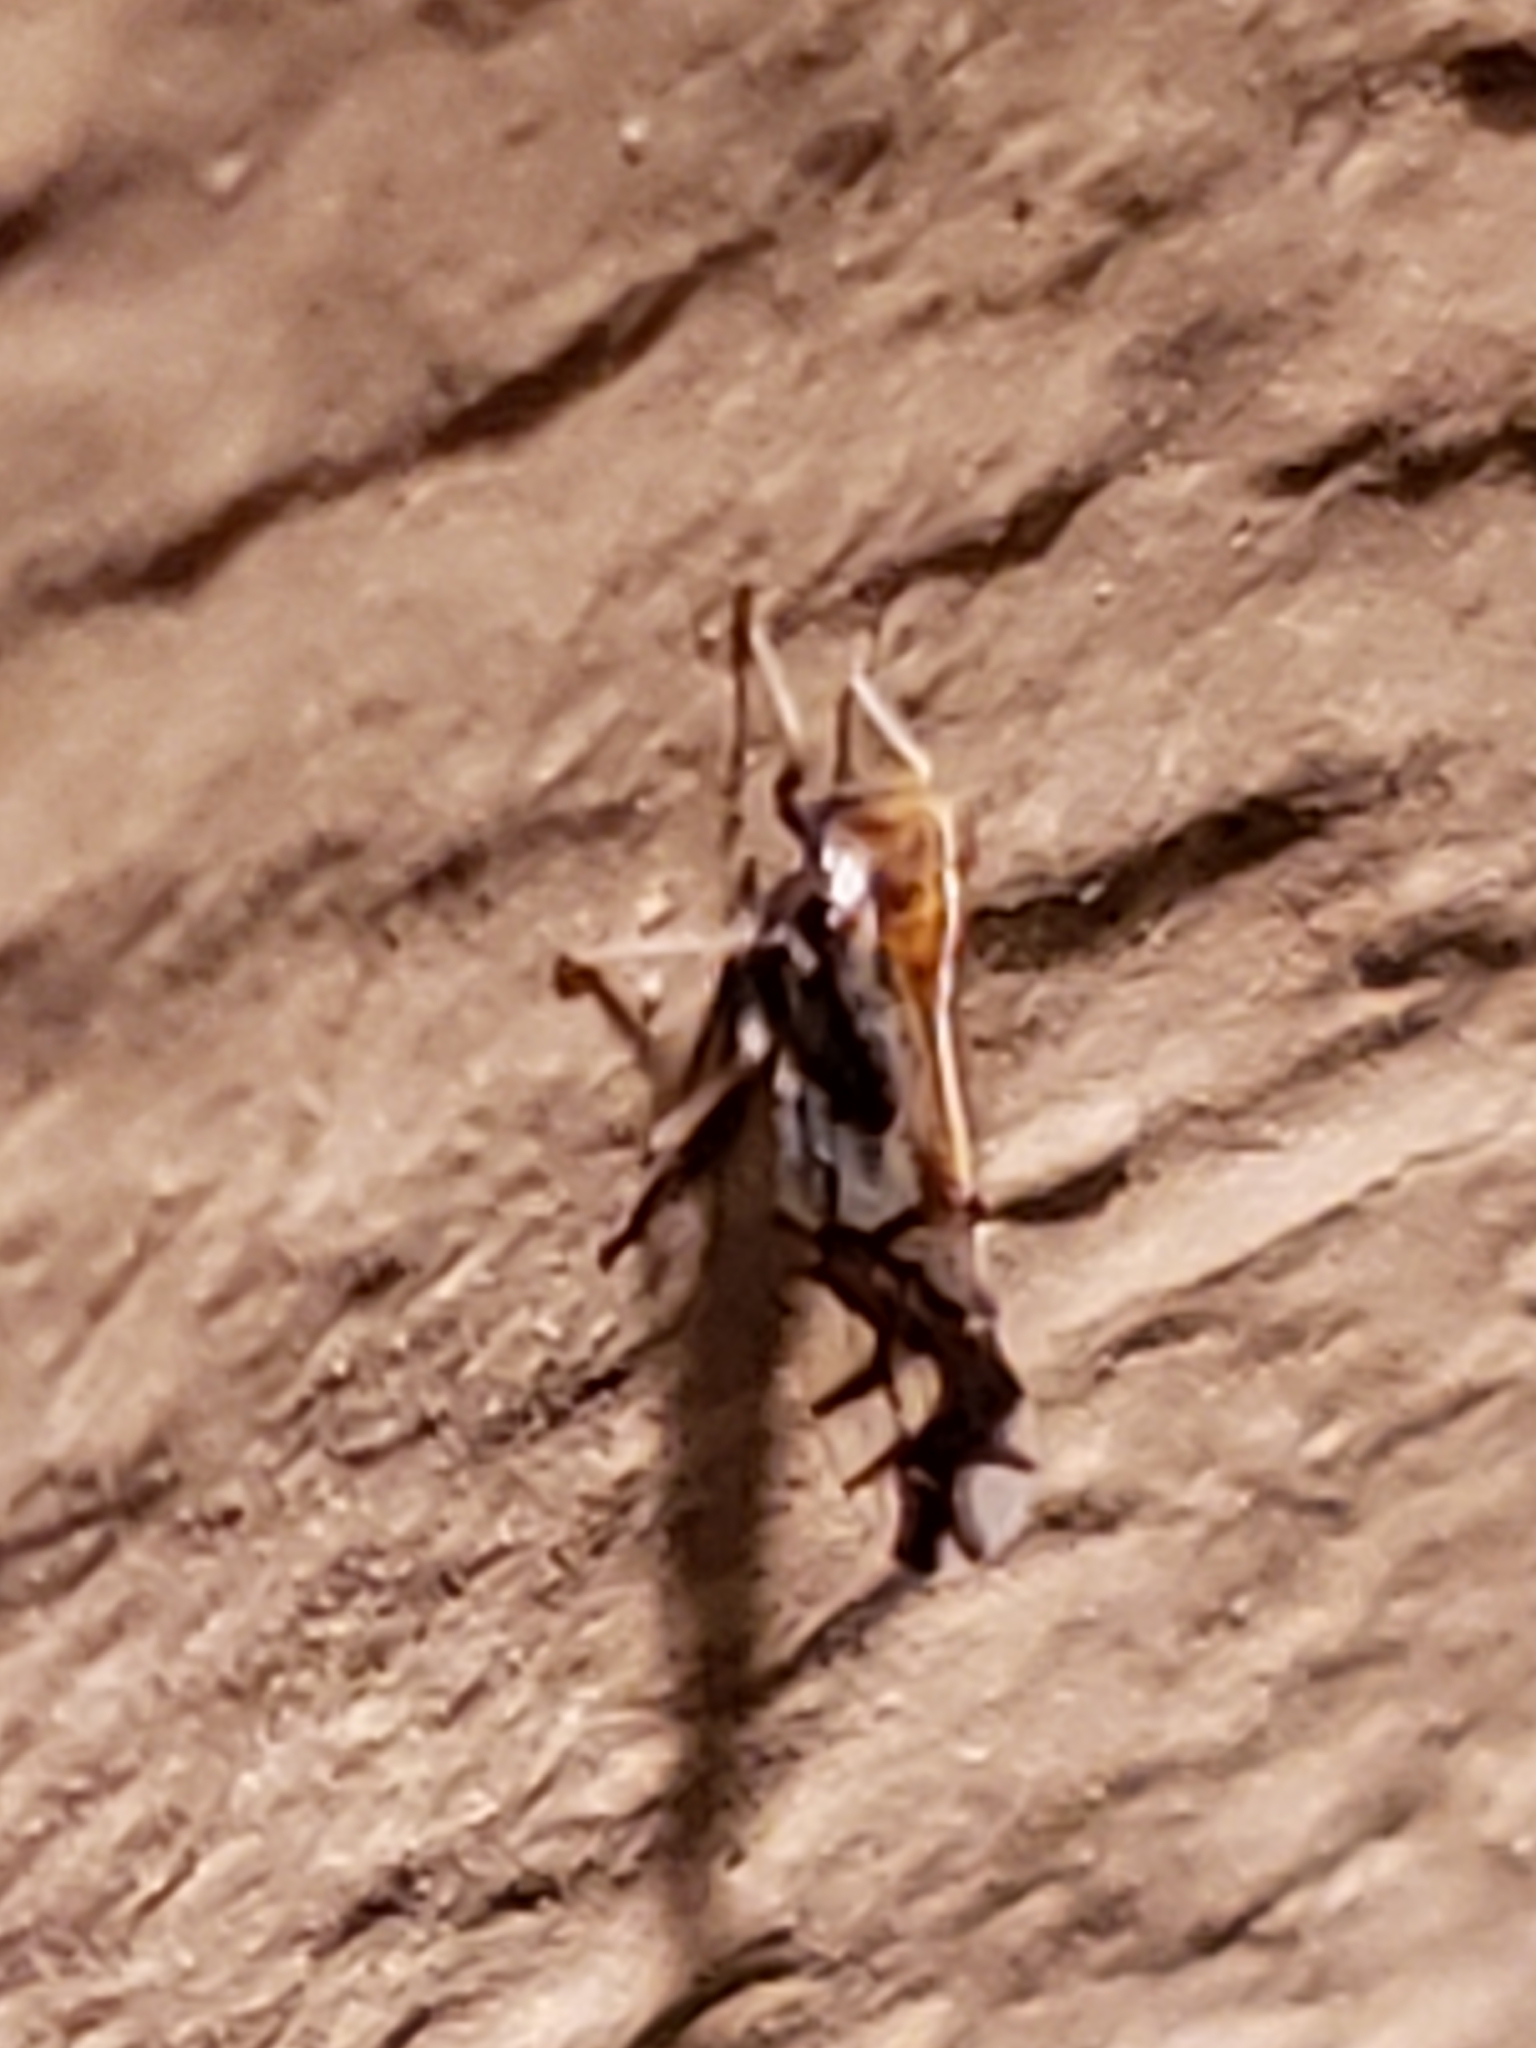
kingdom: Animalia
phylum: Arthropoda
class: Insecta
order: Hemiptera
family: Delphacidae
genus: Liburniella
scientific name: Liburniella ornata
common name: Ornate planthopper
